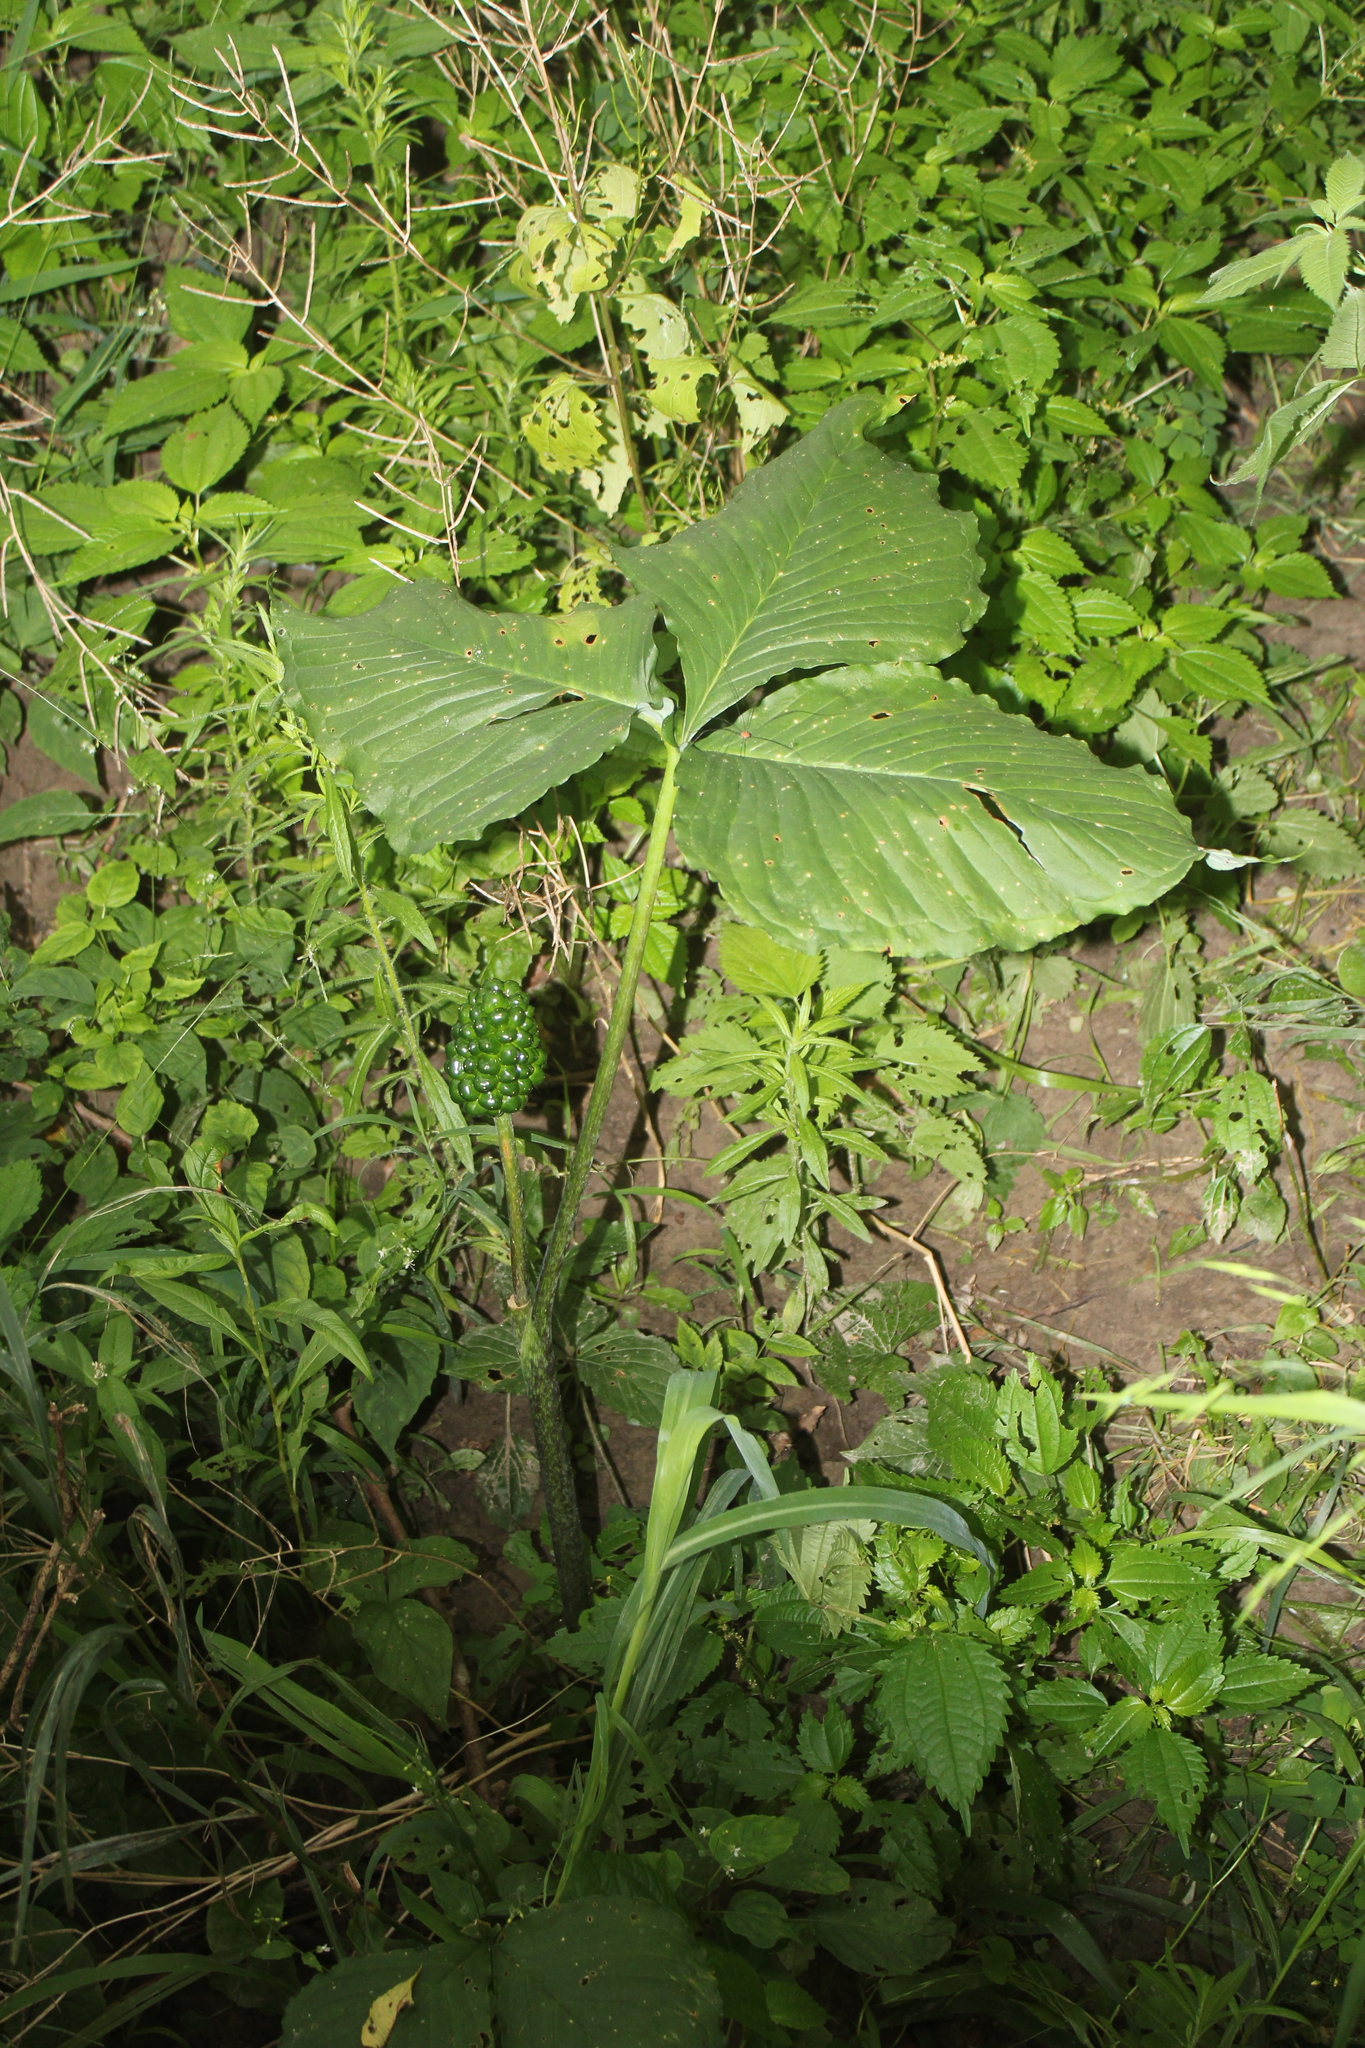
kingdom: Plantae
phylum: Tracheophyta
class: Liliopsida
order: Alismatales
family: Araceae
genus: Arisaema
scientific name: Arisaema triphyllum
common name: Jack-in-the-pulpit
